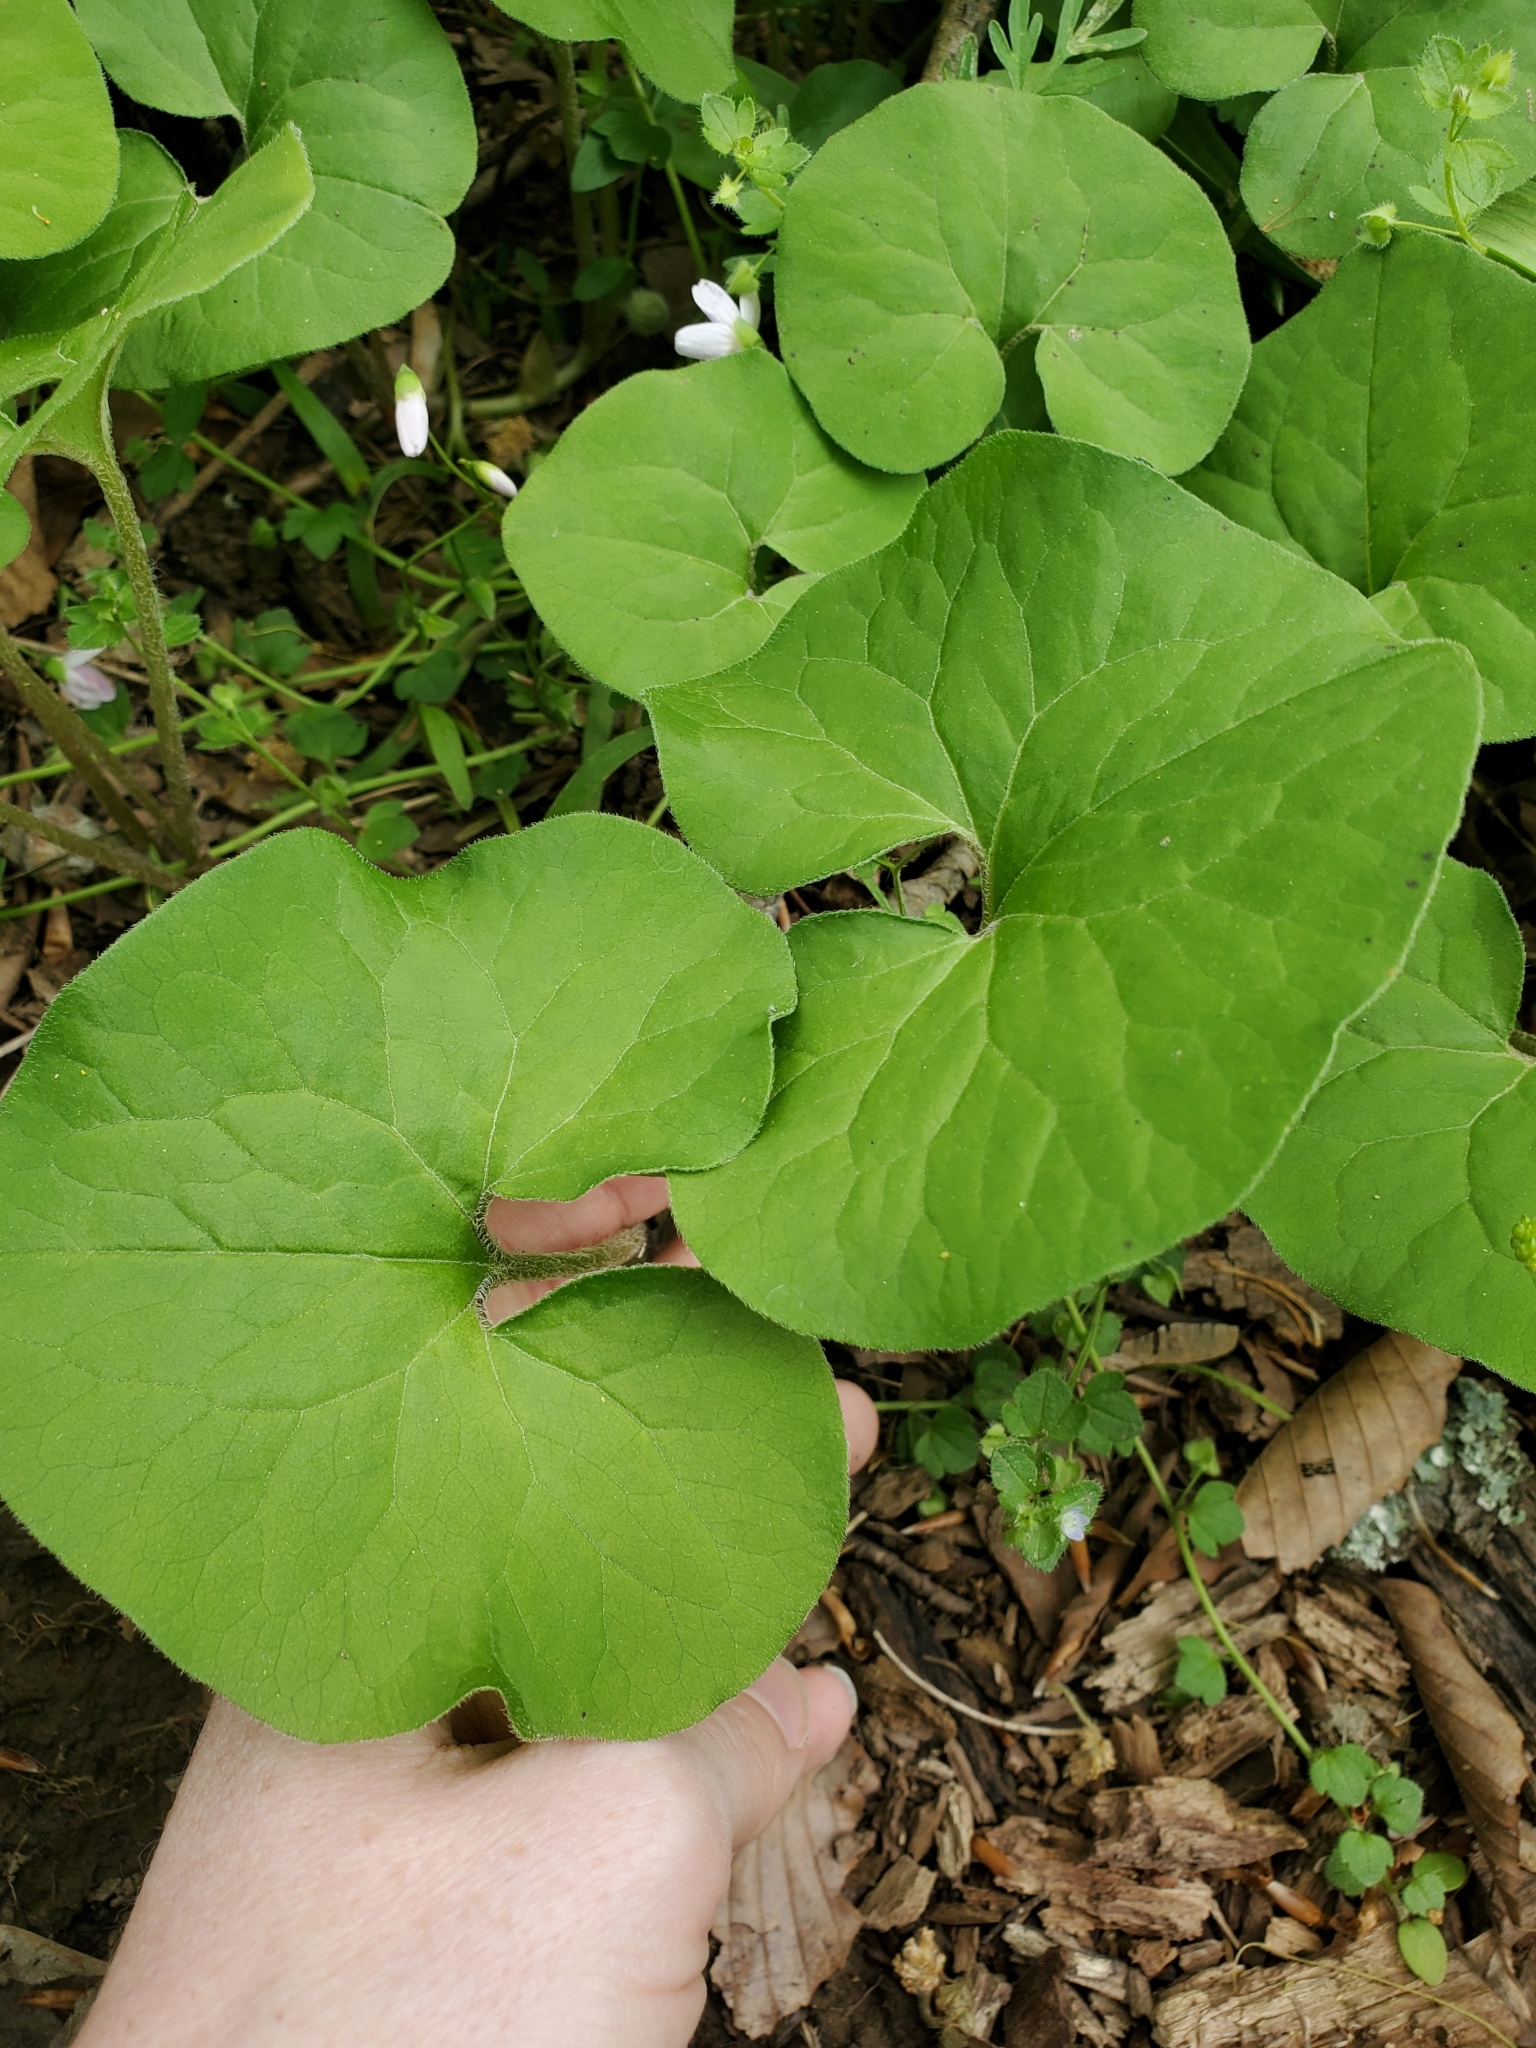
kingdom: Plantae
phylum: Tracheophyta
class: Magnoliopsida
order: Piperales
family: Aristolochiaceae
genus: Asarum
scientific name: Asarum canadense
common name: Wild ginger
